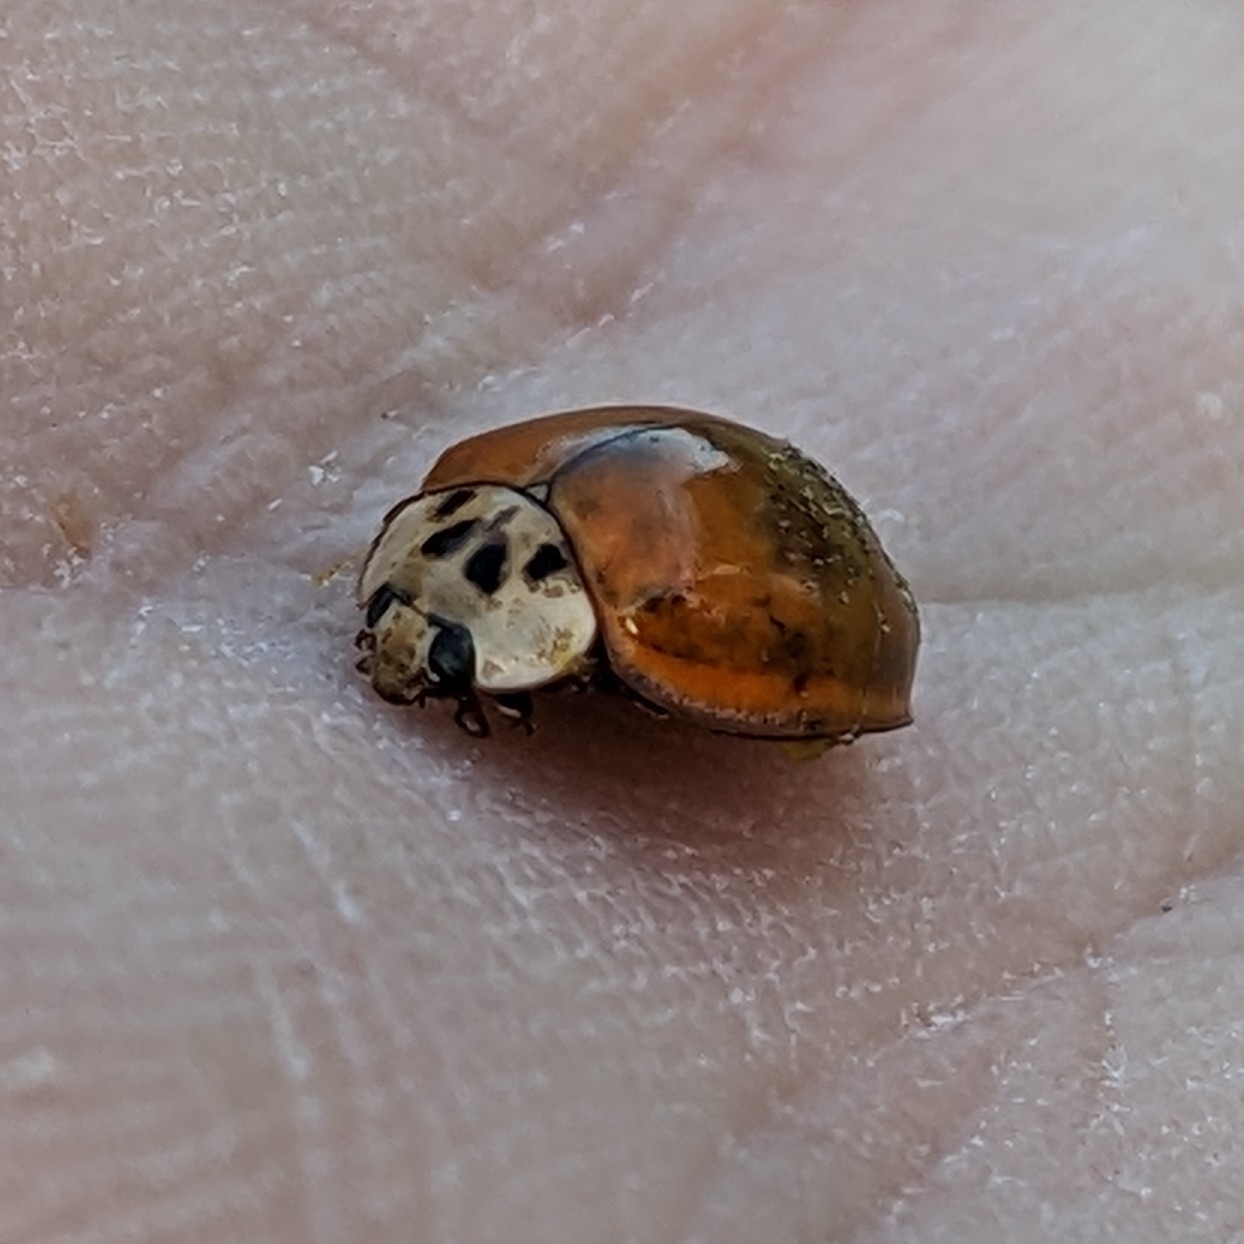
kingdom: Animalia
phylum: Arthropoda
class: Insecta
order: Coleoptera
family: Coccinellidae
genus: Harmonia
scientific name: Harmonia axyridis
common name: Harlequin ladybird
